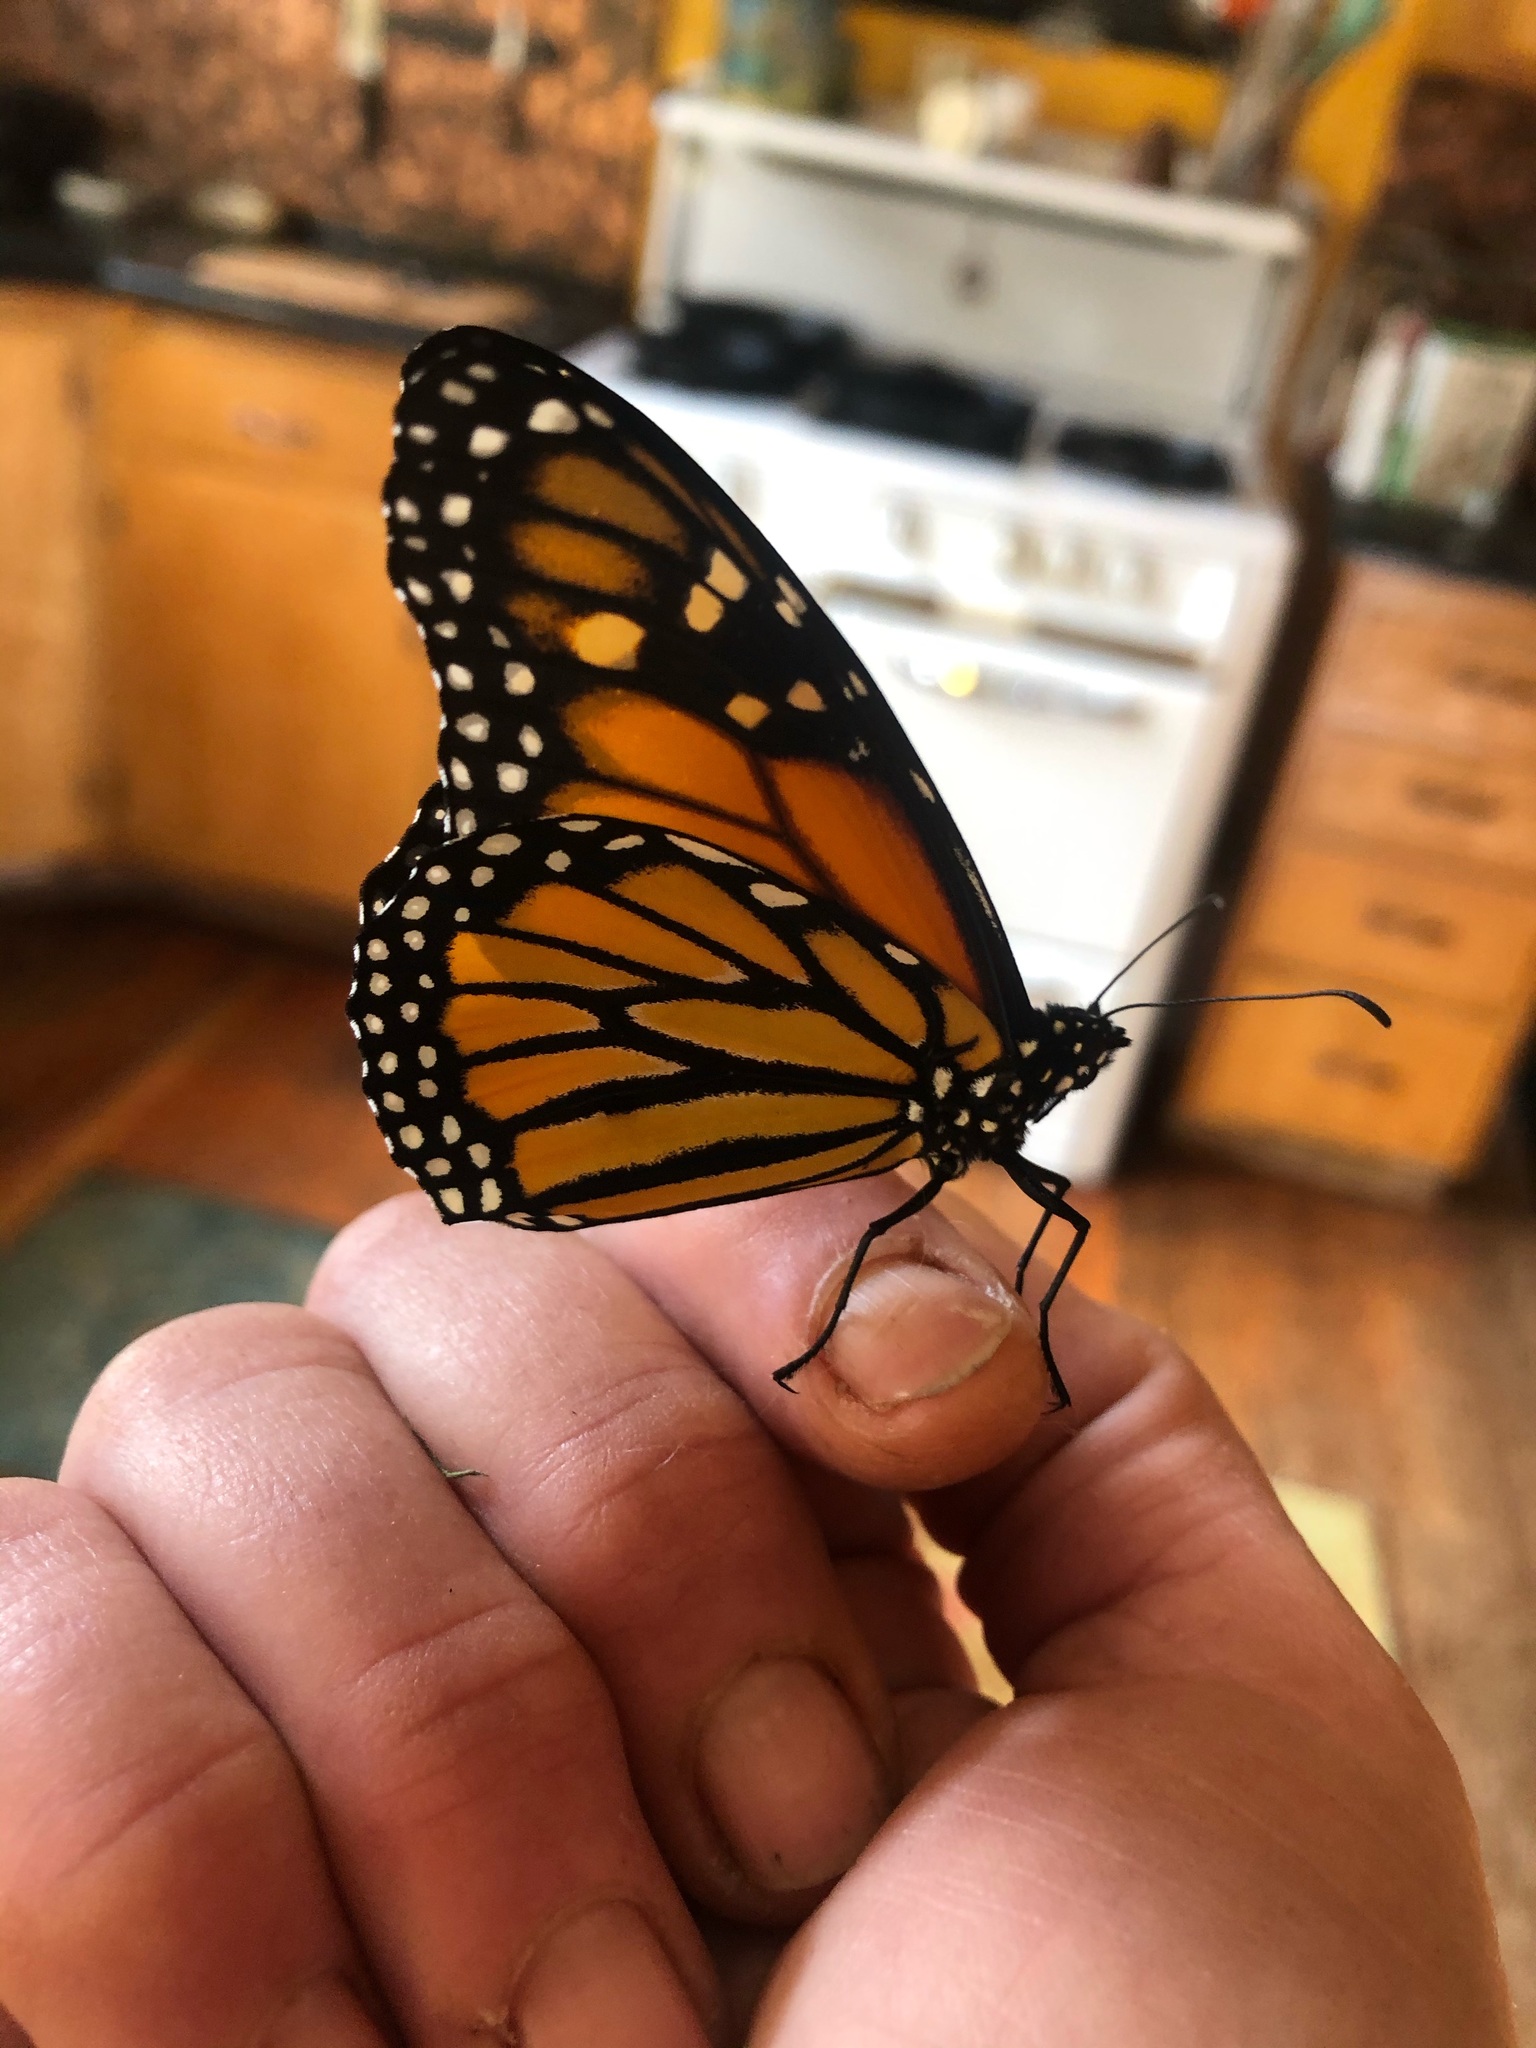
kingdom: Animalia
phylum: Arthropoda
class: Insecta
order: Lepidoptera
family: Nymphalidae
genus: Danaus
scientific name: Danaus plexippus
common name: Monarch
